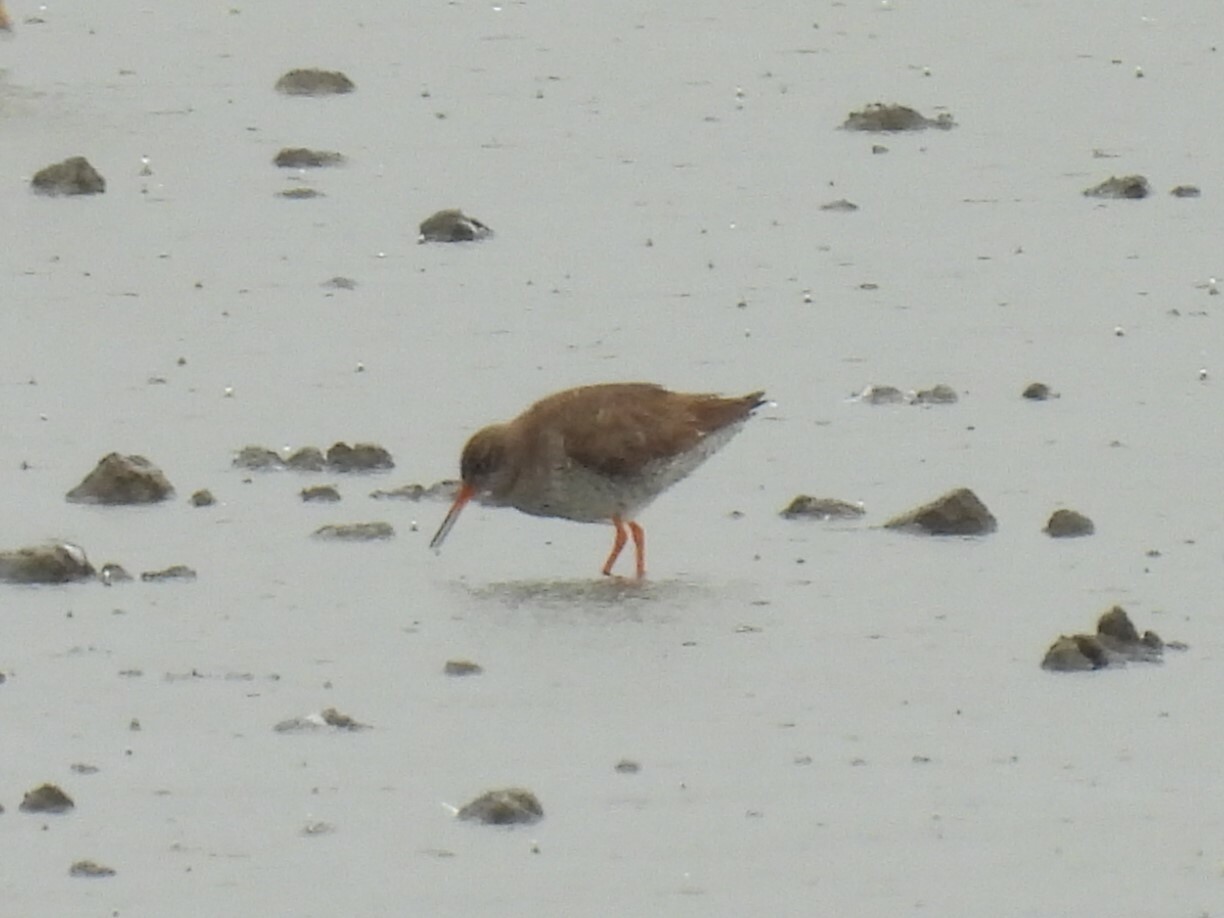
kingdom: Animalia
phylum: Chordata
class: Aves
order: Charadriiformes
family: Scolopacidae
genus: Tringa
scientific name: Tringa totanus
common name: Common redshank
